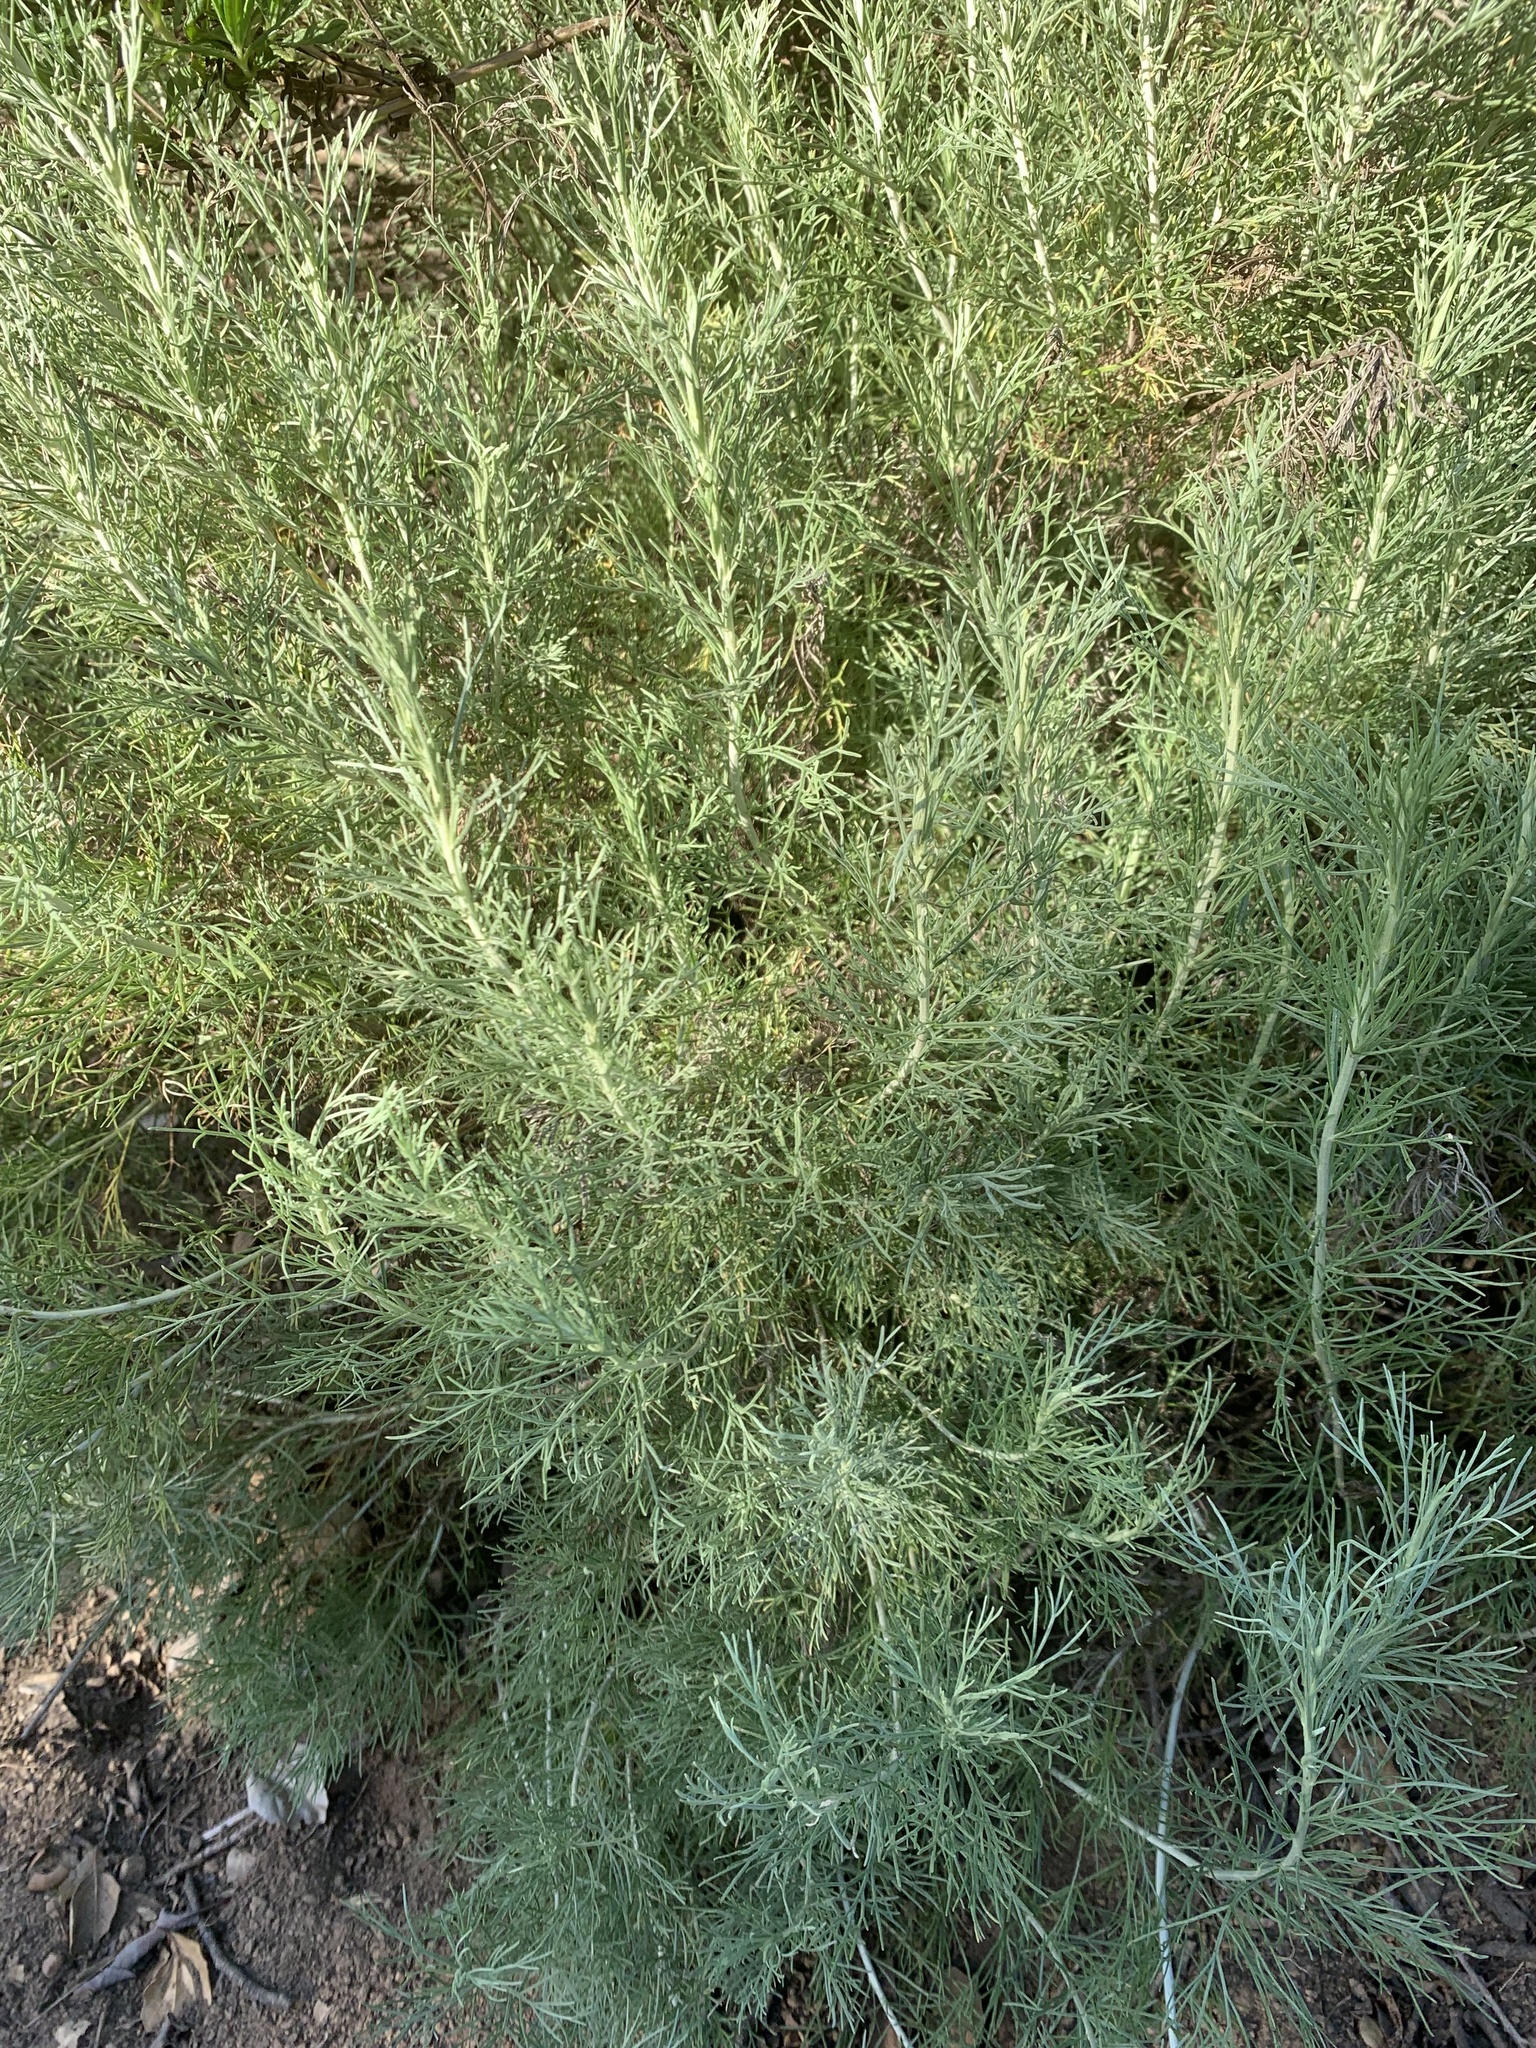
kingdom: Plantae
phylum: Tracheophyta
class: Magnoliopsida
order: Asterales
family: Asteraceae
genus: Artemisia
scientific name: Artemisia californica
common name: California sagebrush
